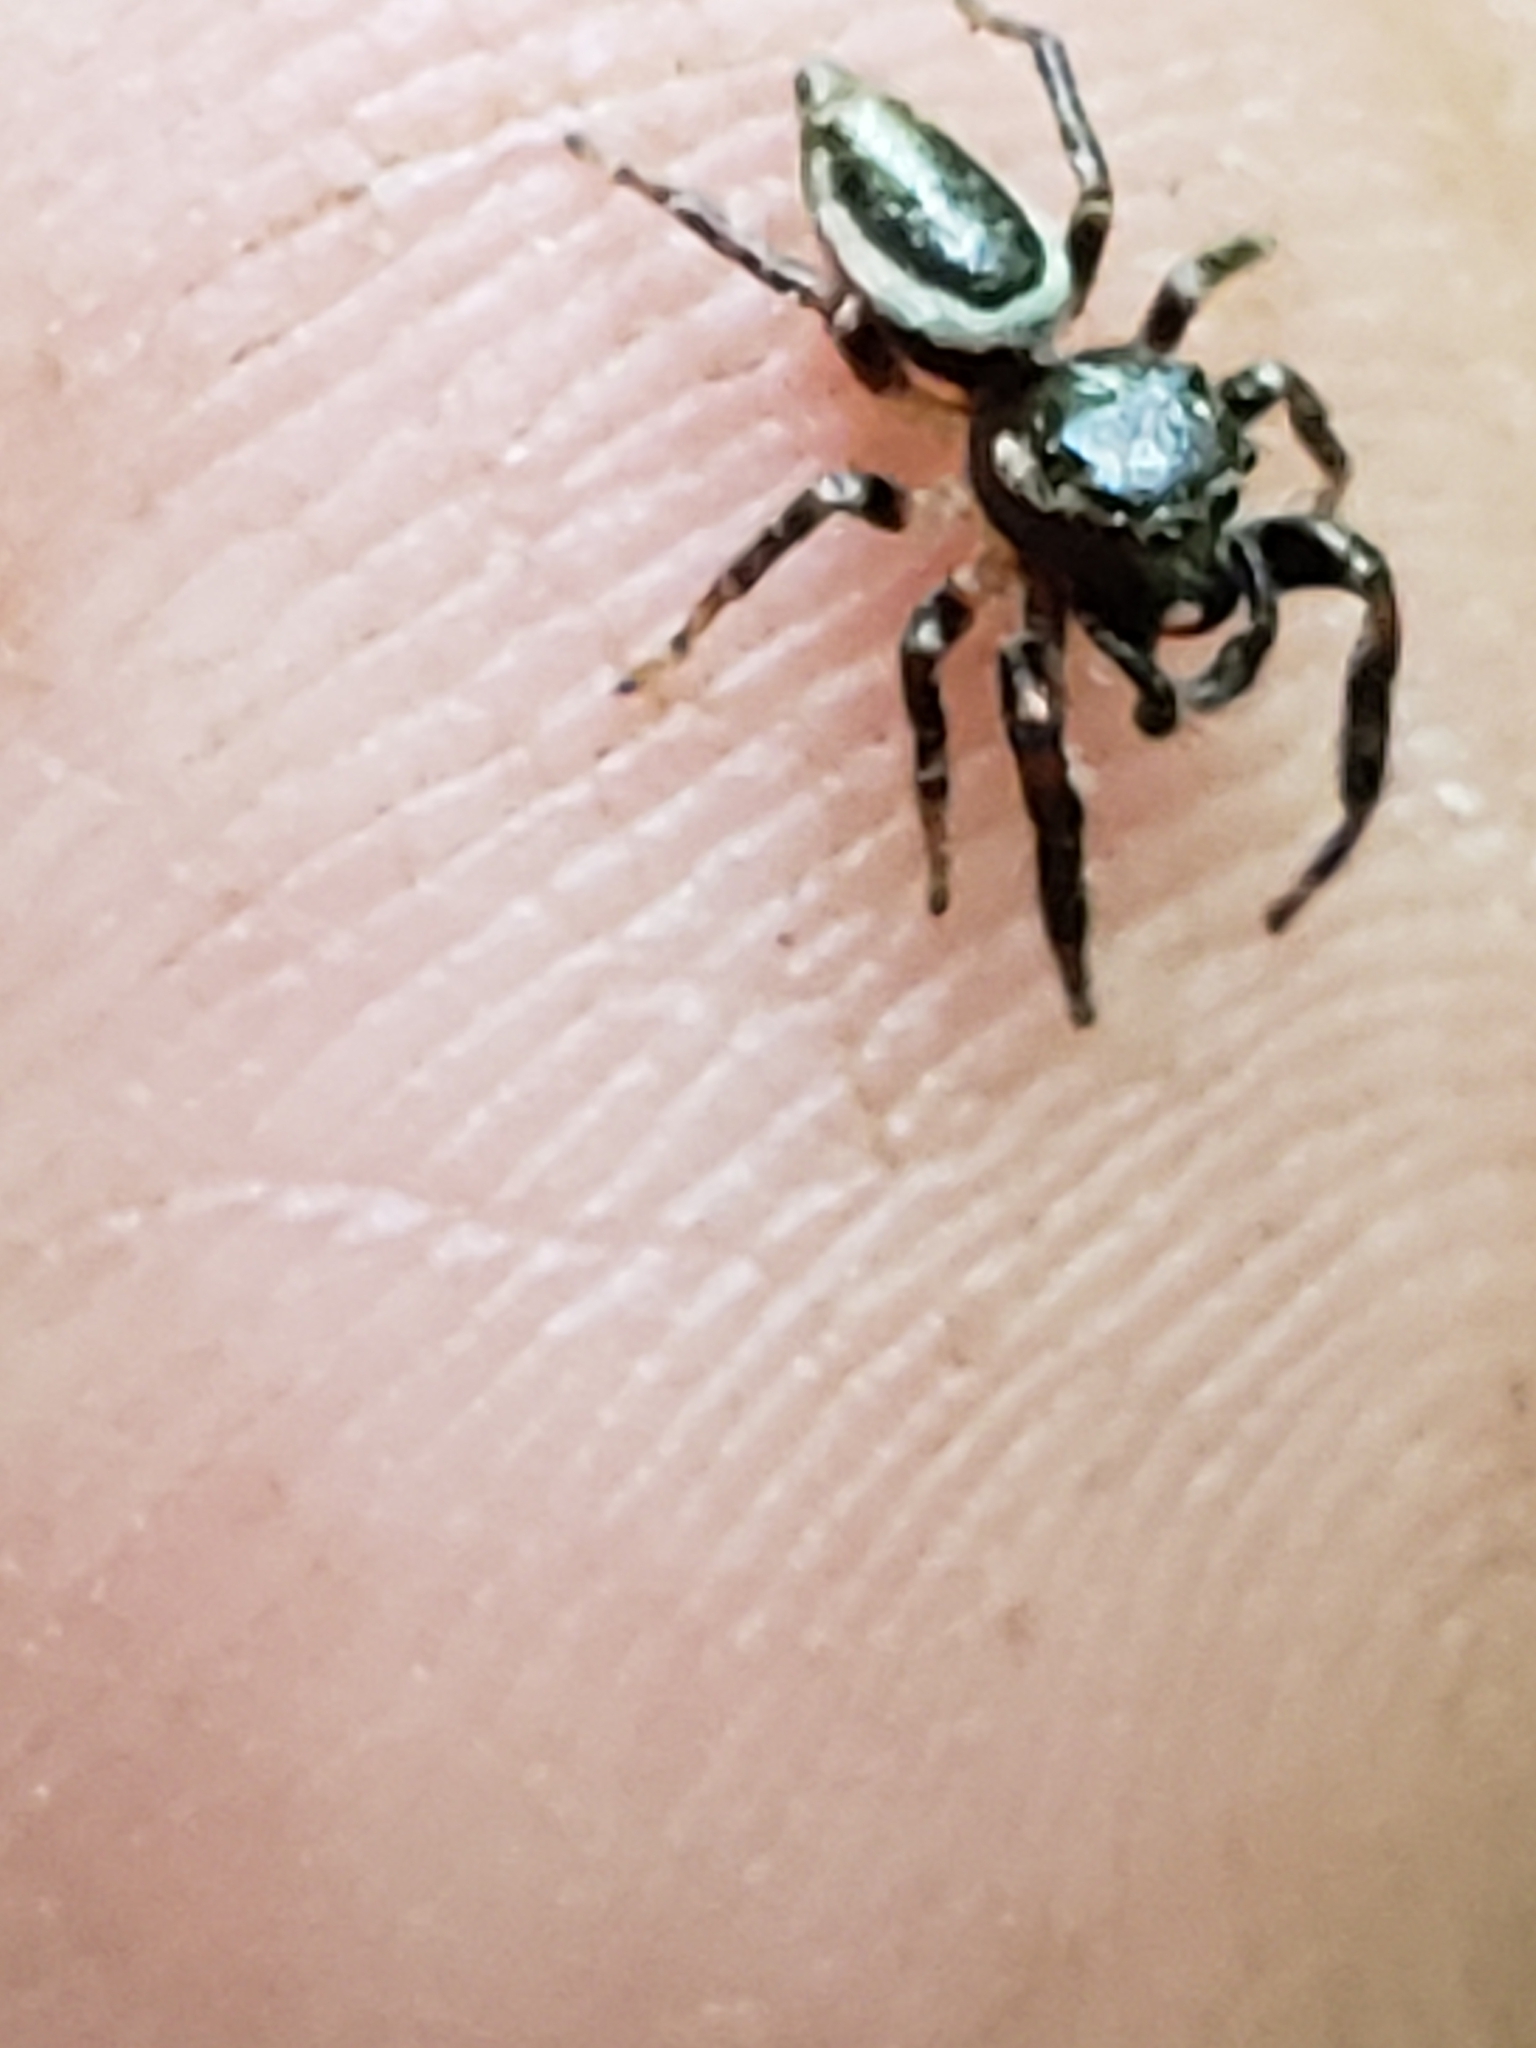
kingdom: Animalia
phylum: Arthropoda
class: Arachnida
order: Araneae
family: Salticidae
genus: Eris
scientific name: Eris militaris
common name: Bronze jumper
